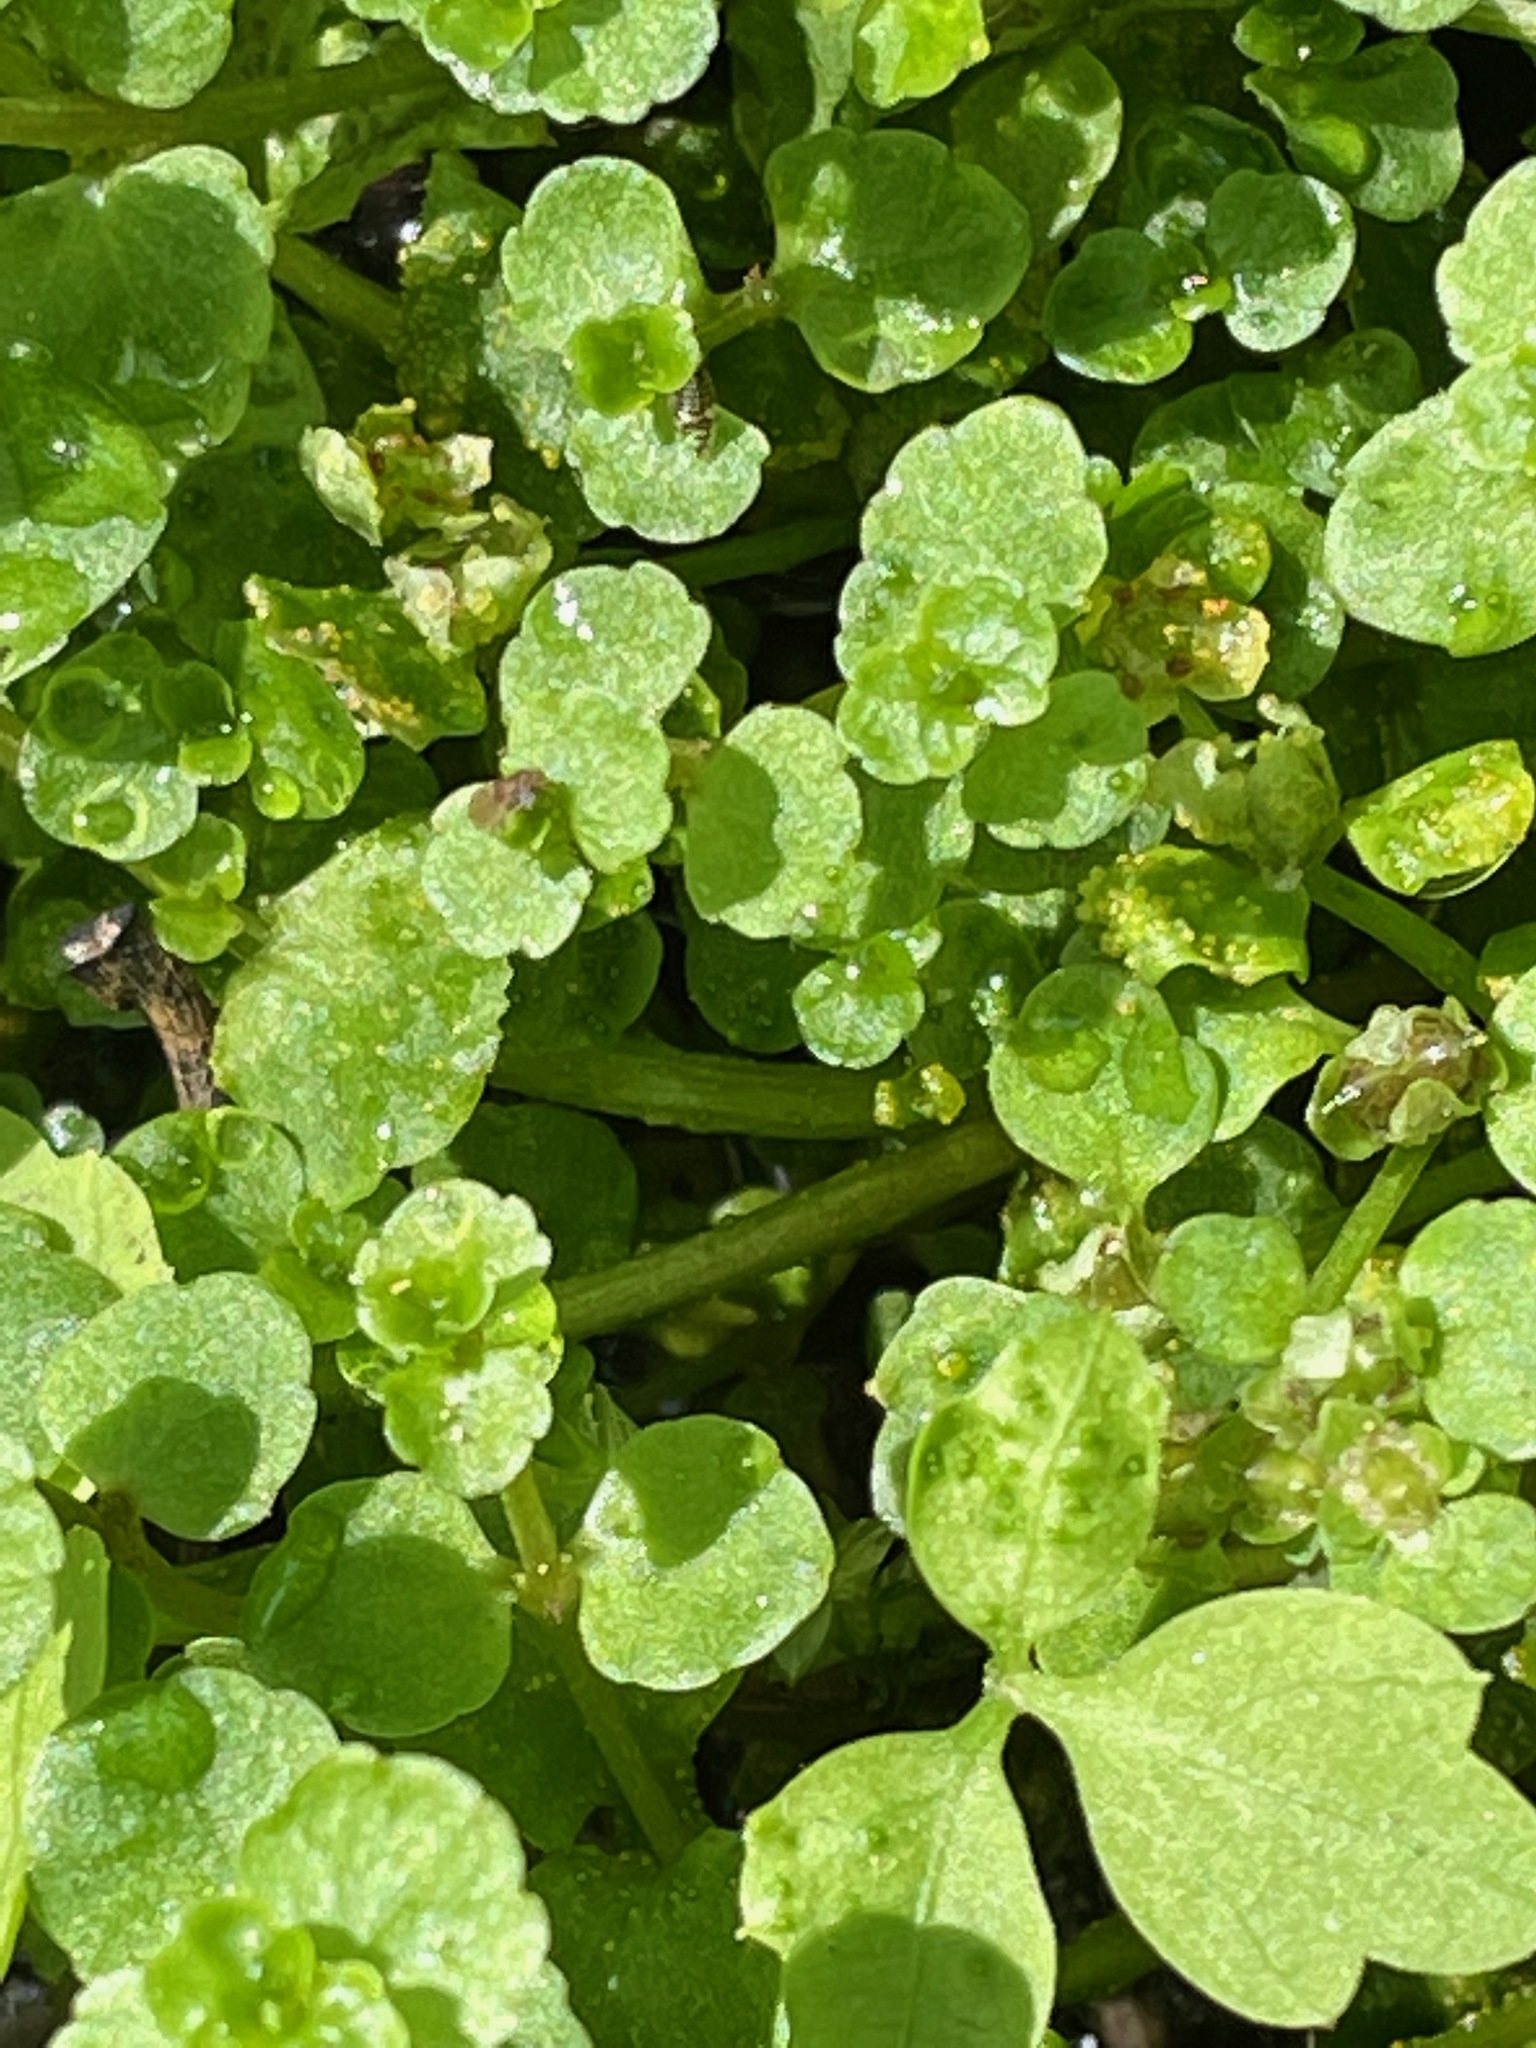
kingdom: Plantae
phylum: Tracheophyta
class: Magnoliopsida
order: Saxifragales
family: Saxifragaceae
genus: Chrysosplenium
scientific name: Chrysosplenium americanum
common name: American golden-saxifrage
